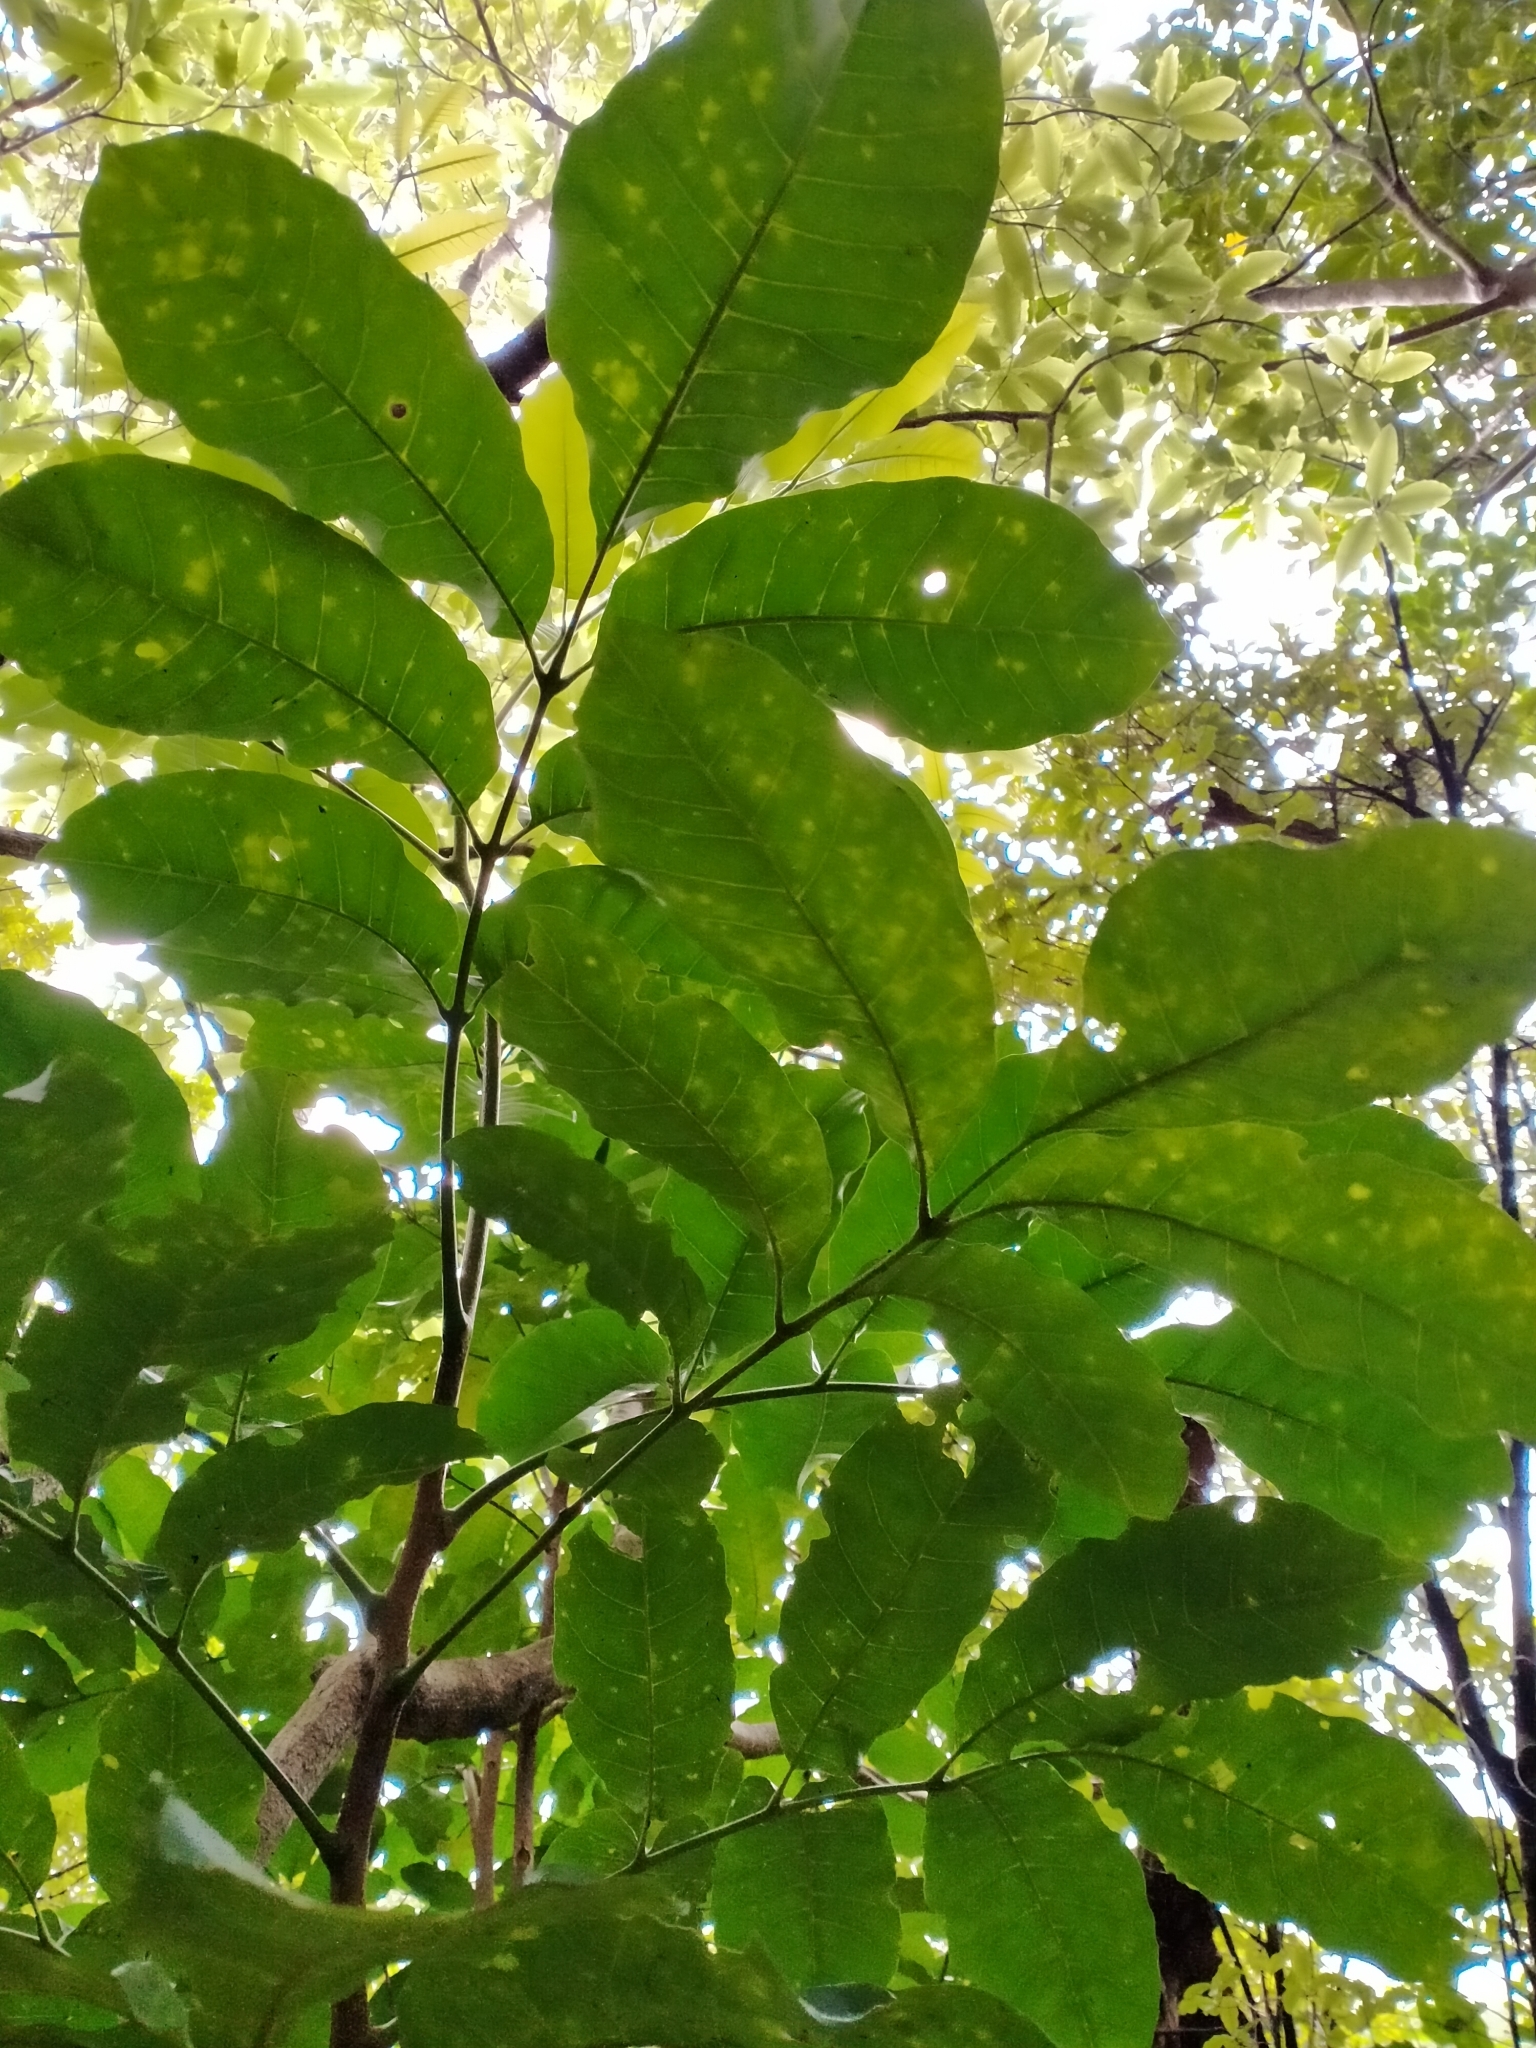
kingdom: Plantae
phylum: Tracheophyta
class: Magnoliopsida
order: Sapindales
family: Meliaceae
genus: Didymocheton
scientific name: Didymocheton spectabilis
